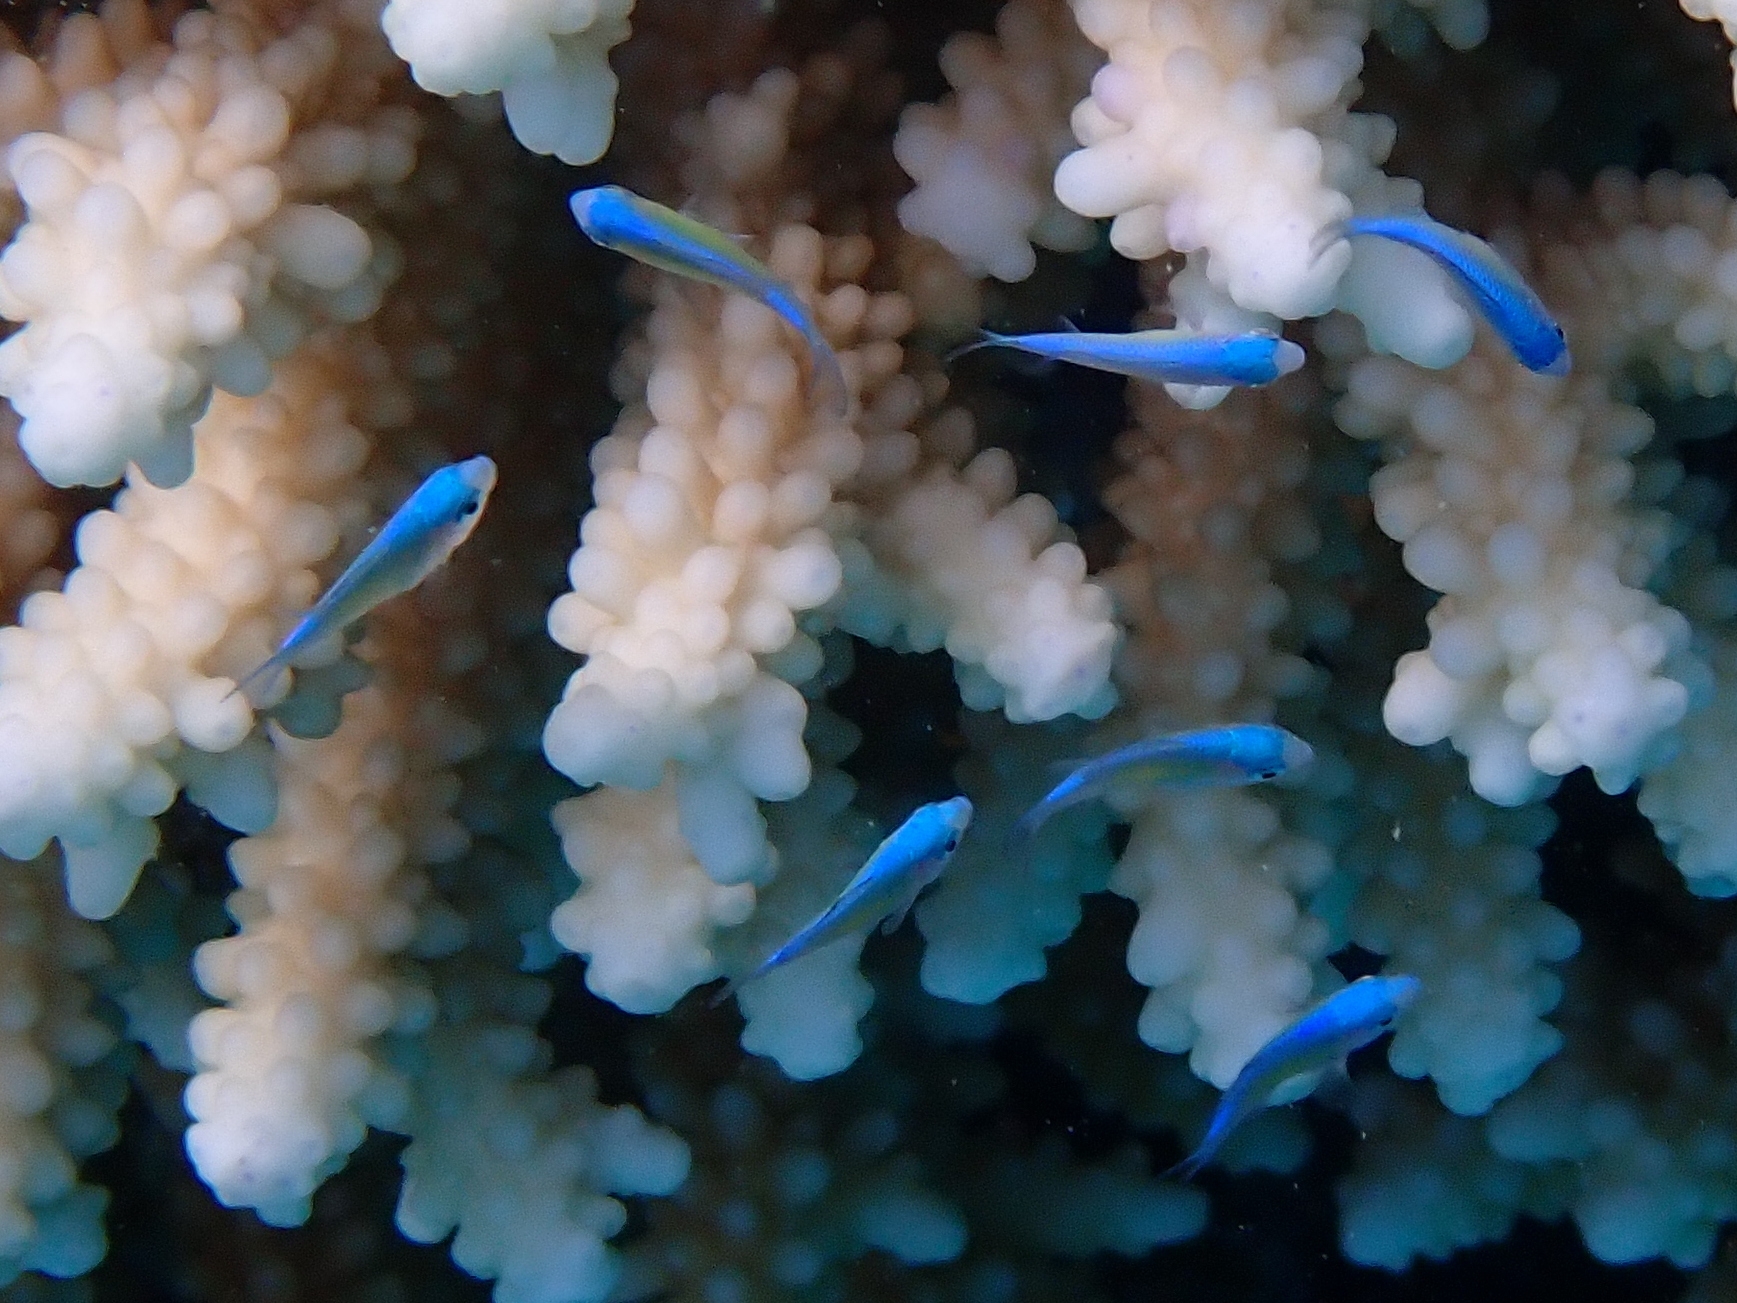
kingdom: Animalia
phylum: Chordata
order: Perciformes
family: Pomacentridae
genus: Chromis
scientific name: Chromis viridis
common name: Blue-green chromis
